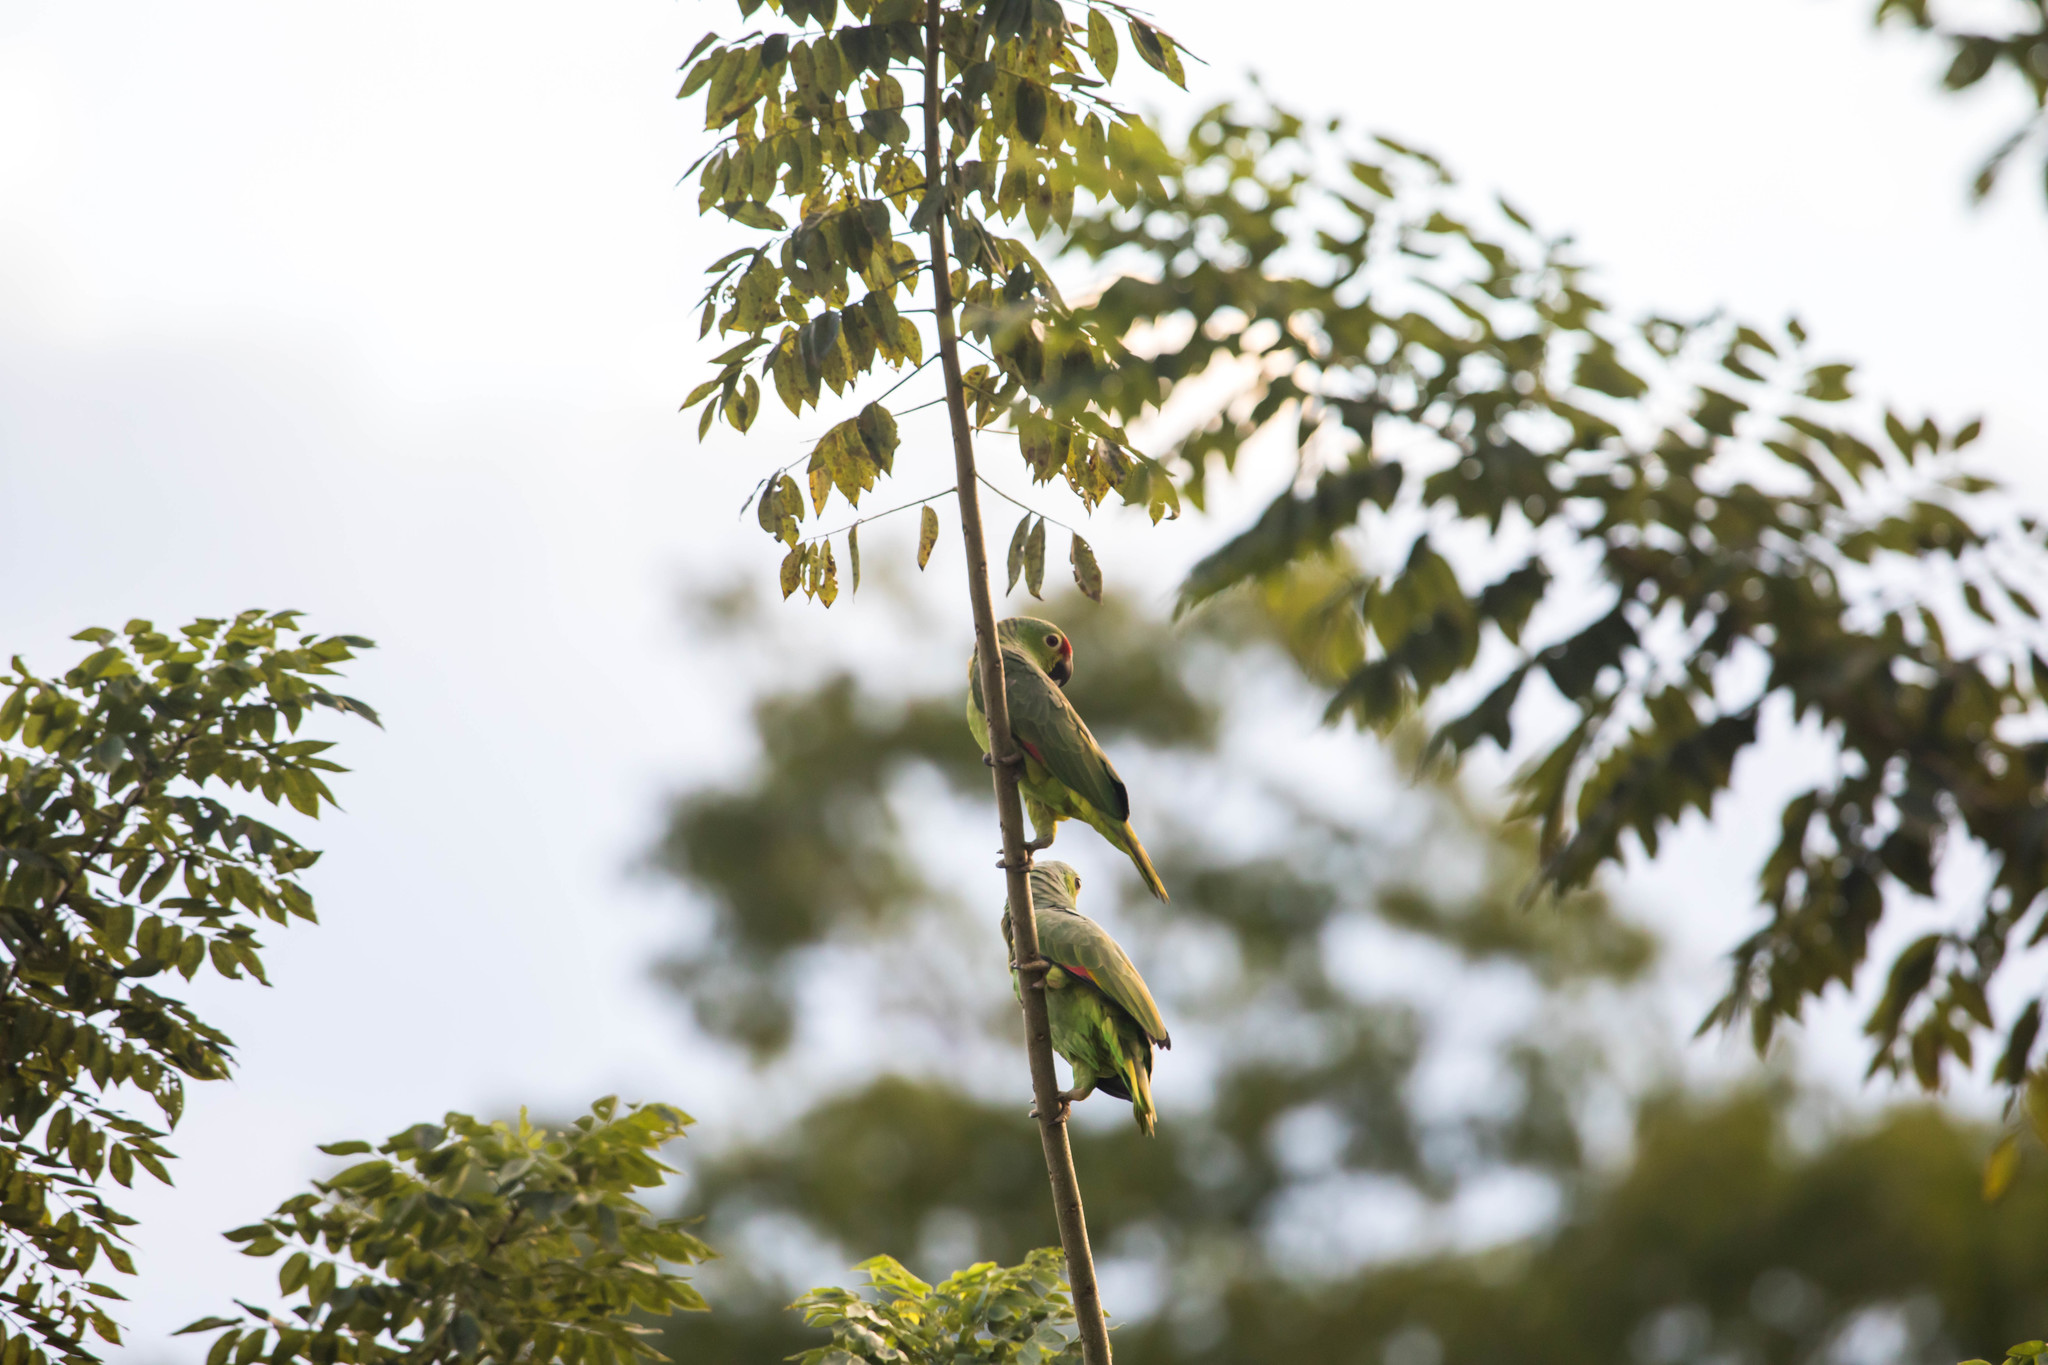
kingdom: Animalia
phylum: Chordata
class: Aves
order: Psittaciformes
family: Psittacidae
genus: Amazona
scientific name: Amazona autumnalis
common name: Red-lored amazon
